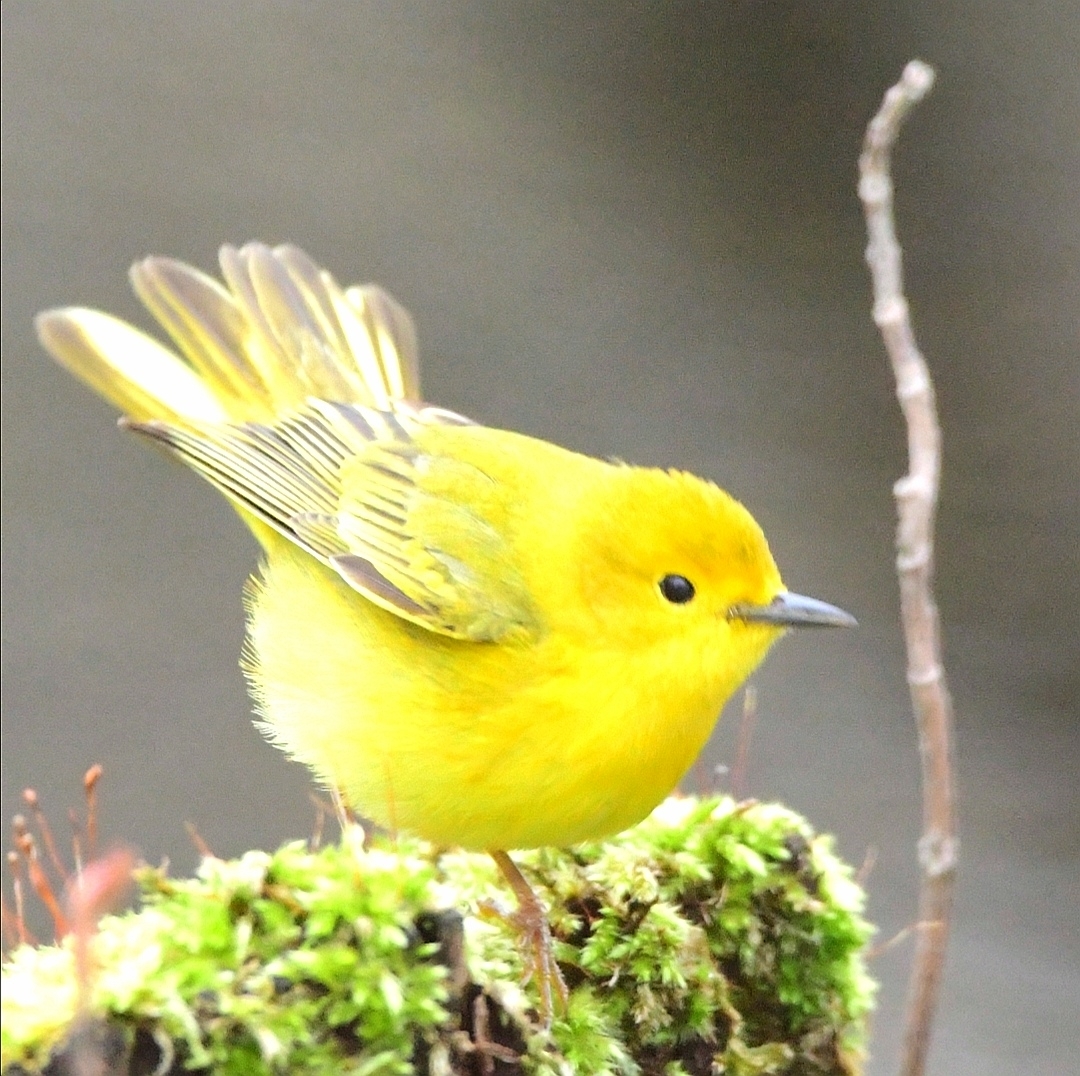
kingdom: Animalia
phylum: Chordata
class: Aves
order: Passeriformes
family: Parulidae
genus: Setophaga
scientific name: Setophaga petechia
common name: Yellow warbler
